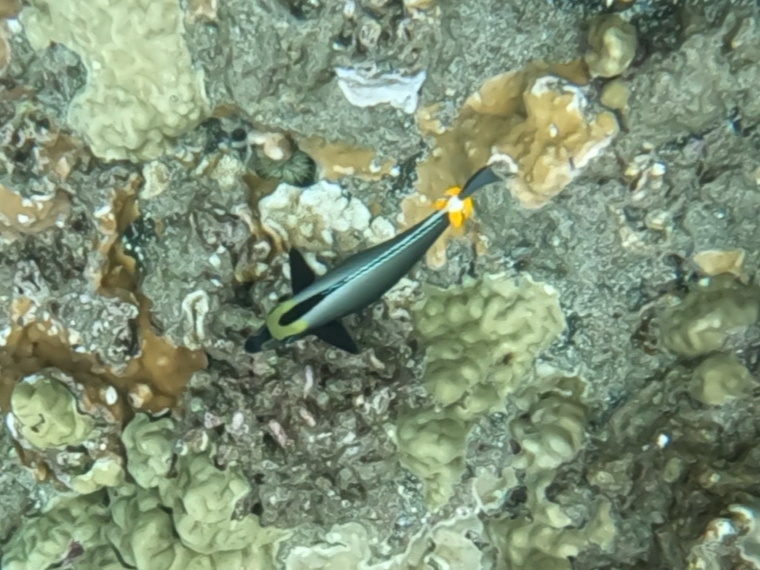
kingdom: Animalia
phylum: Chordata
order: Perciformes
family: Acanthuridae
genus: Naso
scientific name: Naso lituratus
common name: Orangespine unicornfish
